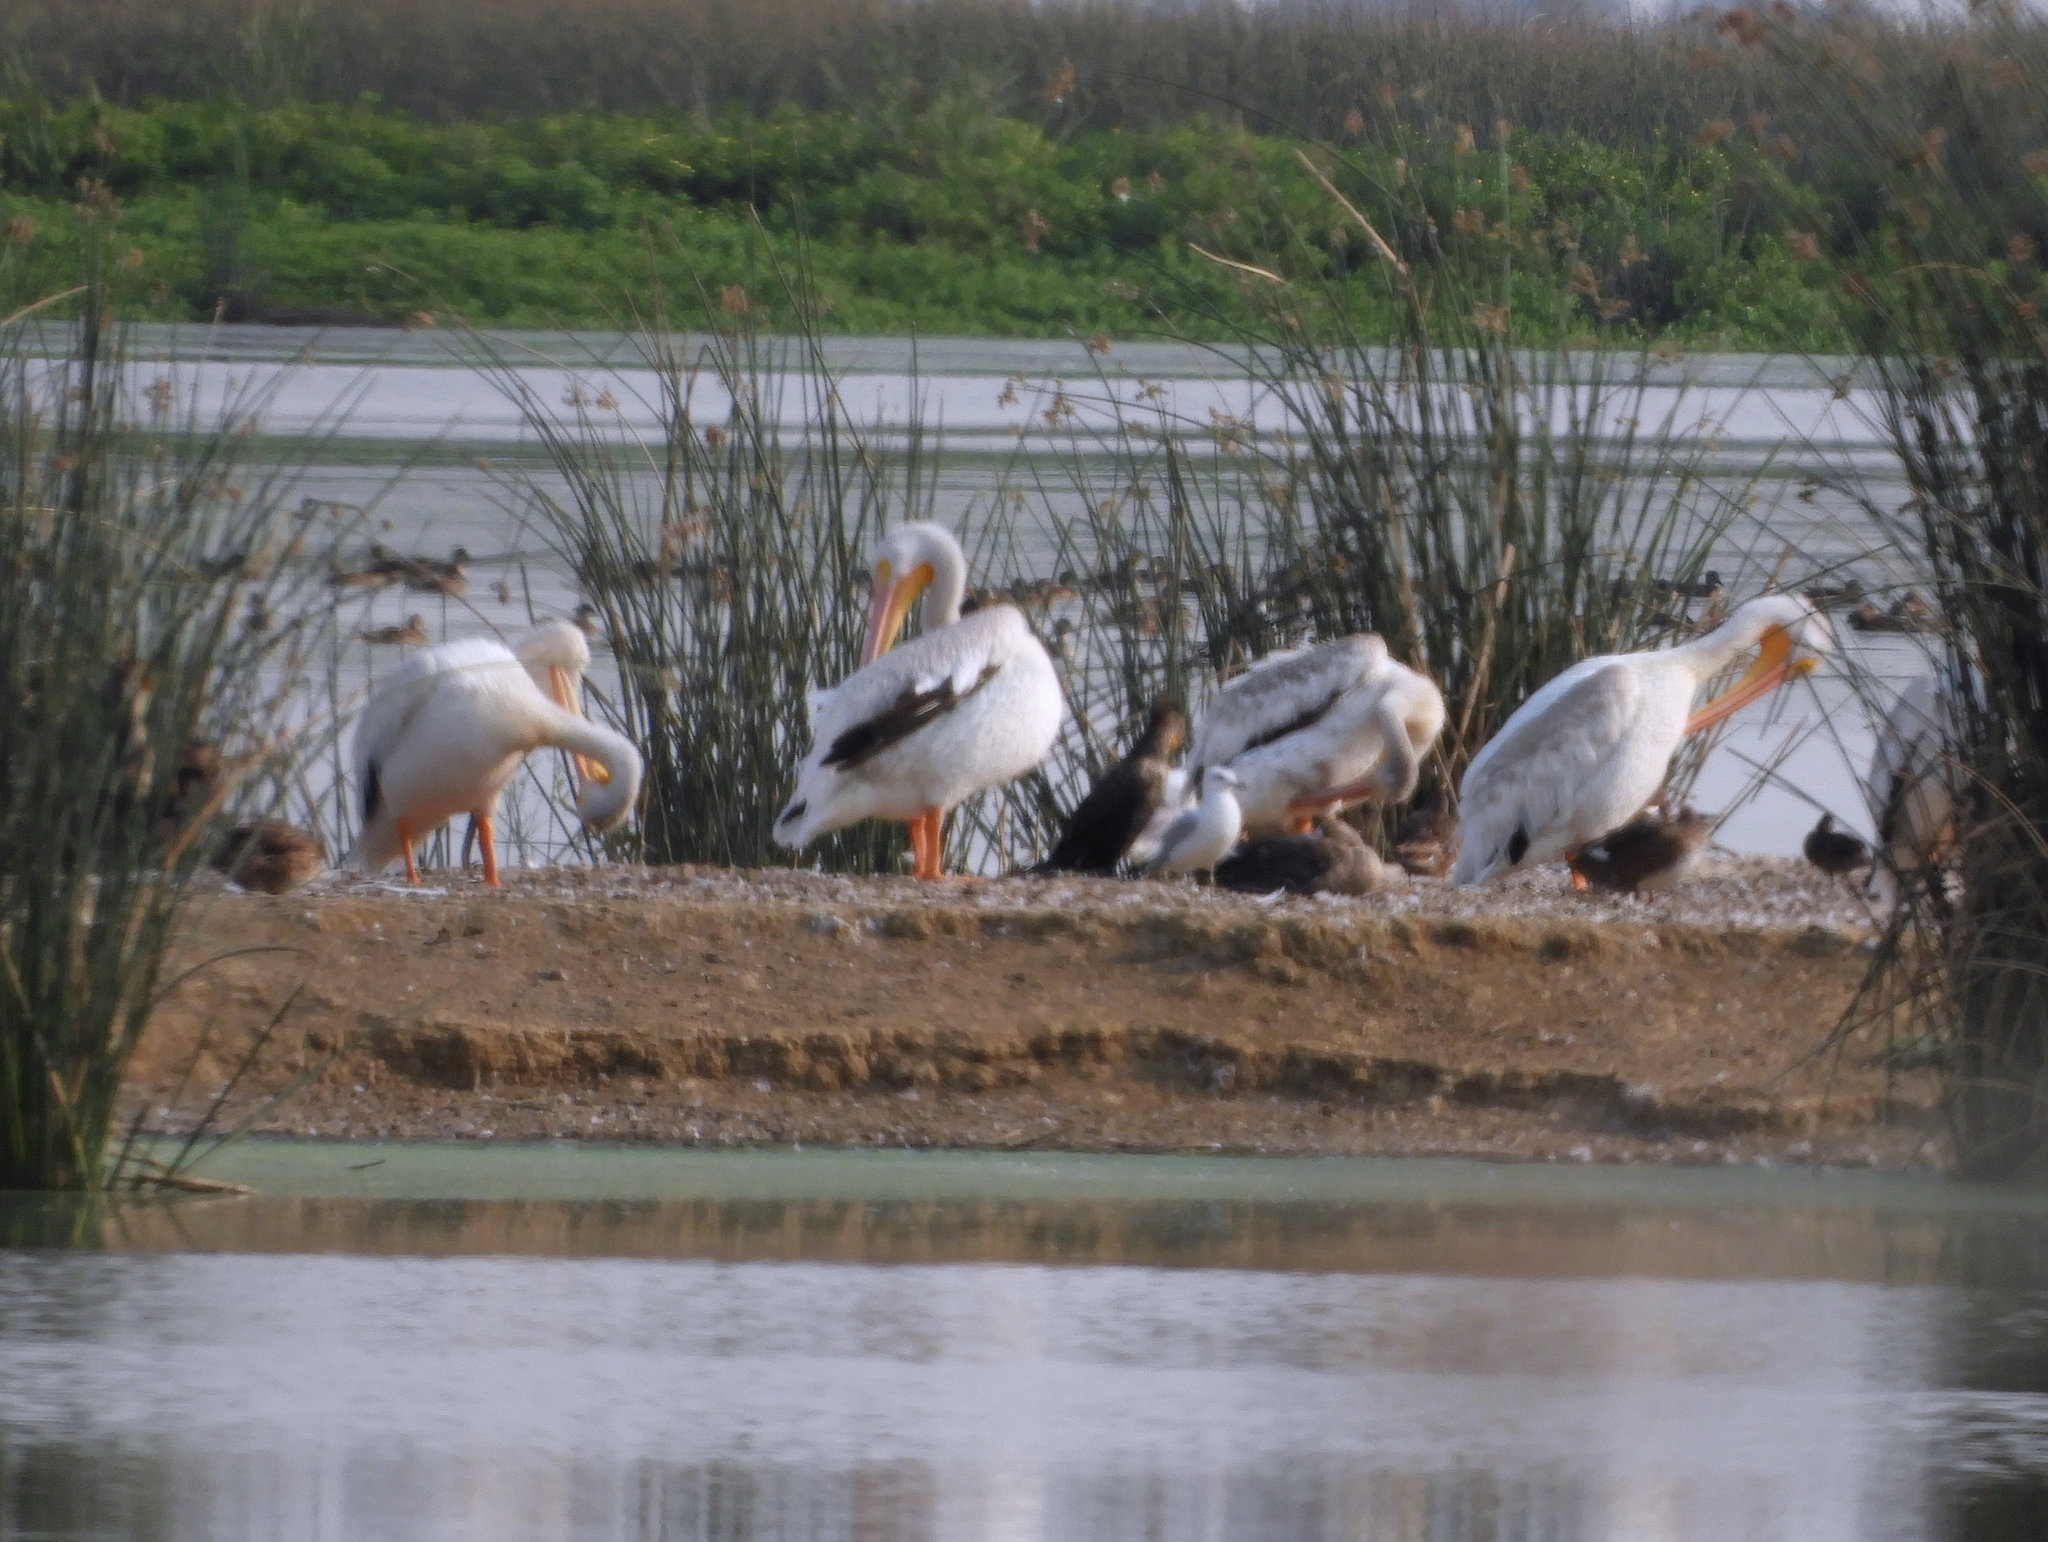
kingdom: Animalia
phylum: Chordata
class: Aves
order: Pelecaniformes
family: Pelecanidae
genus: Pelecanus
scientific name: Pelecanus erythrorhynchos
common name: American white pelican
